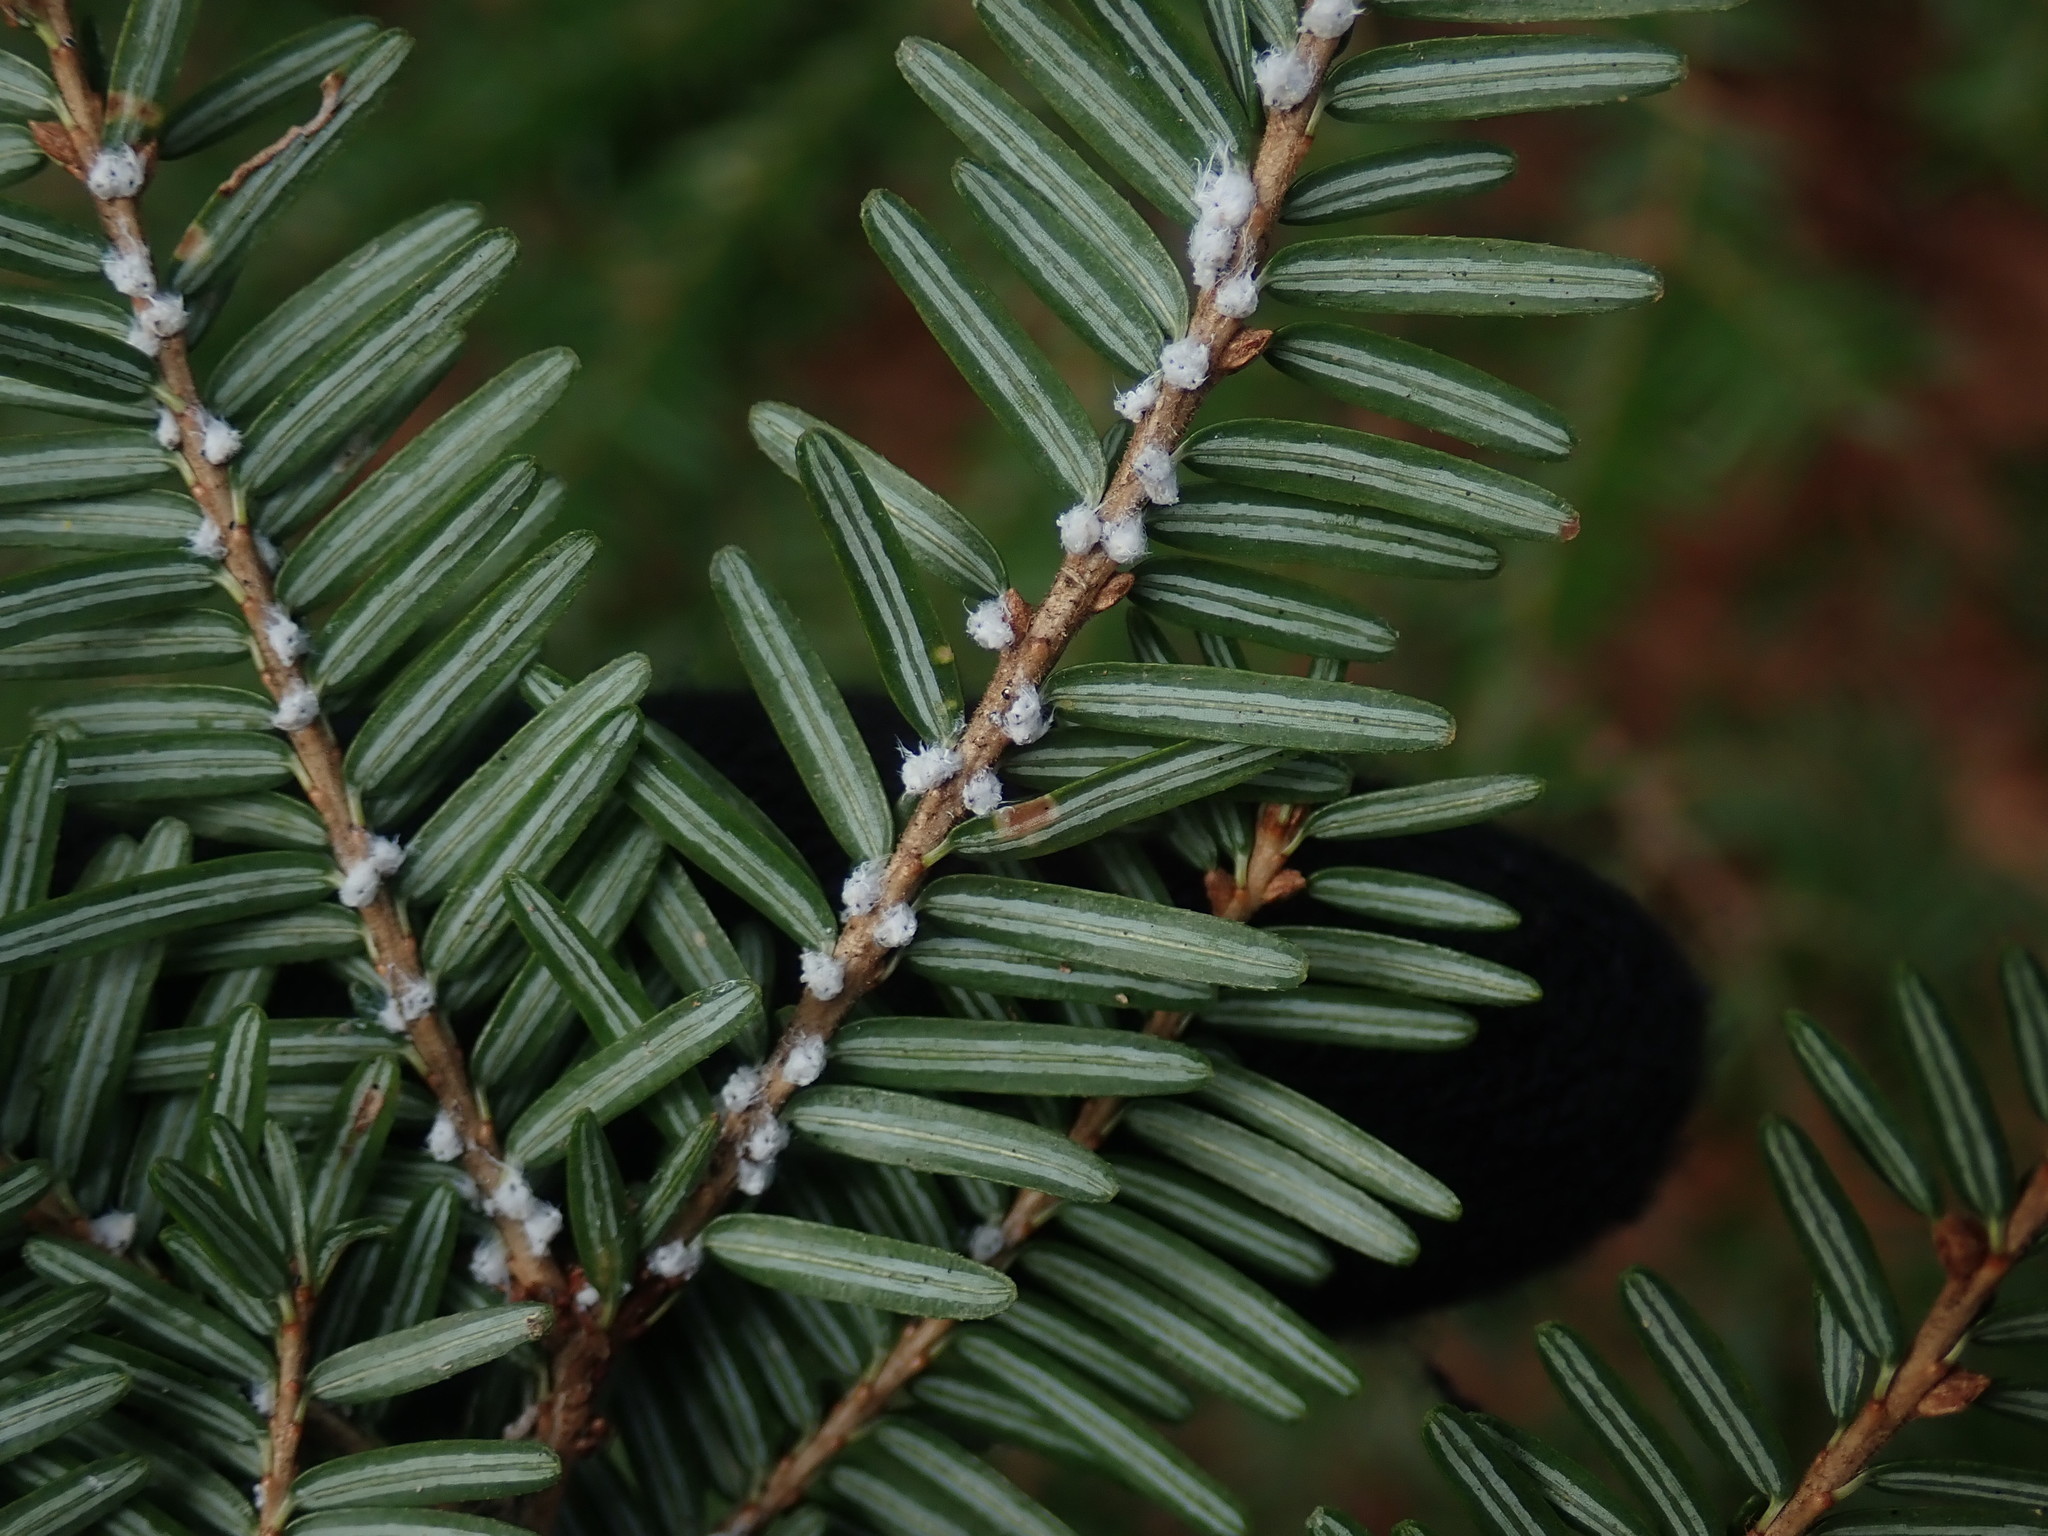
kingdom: Animalia
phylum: Arthropoda
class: Insecta
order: Hemiptera
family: Adelgidae
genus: Adelges
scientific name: Adelges tsugae
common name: Hemlock woolly adelgid
